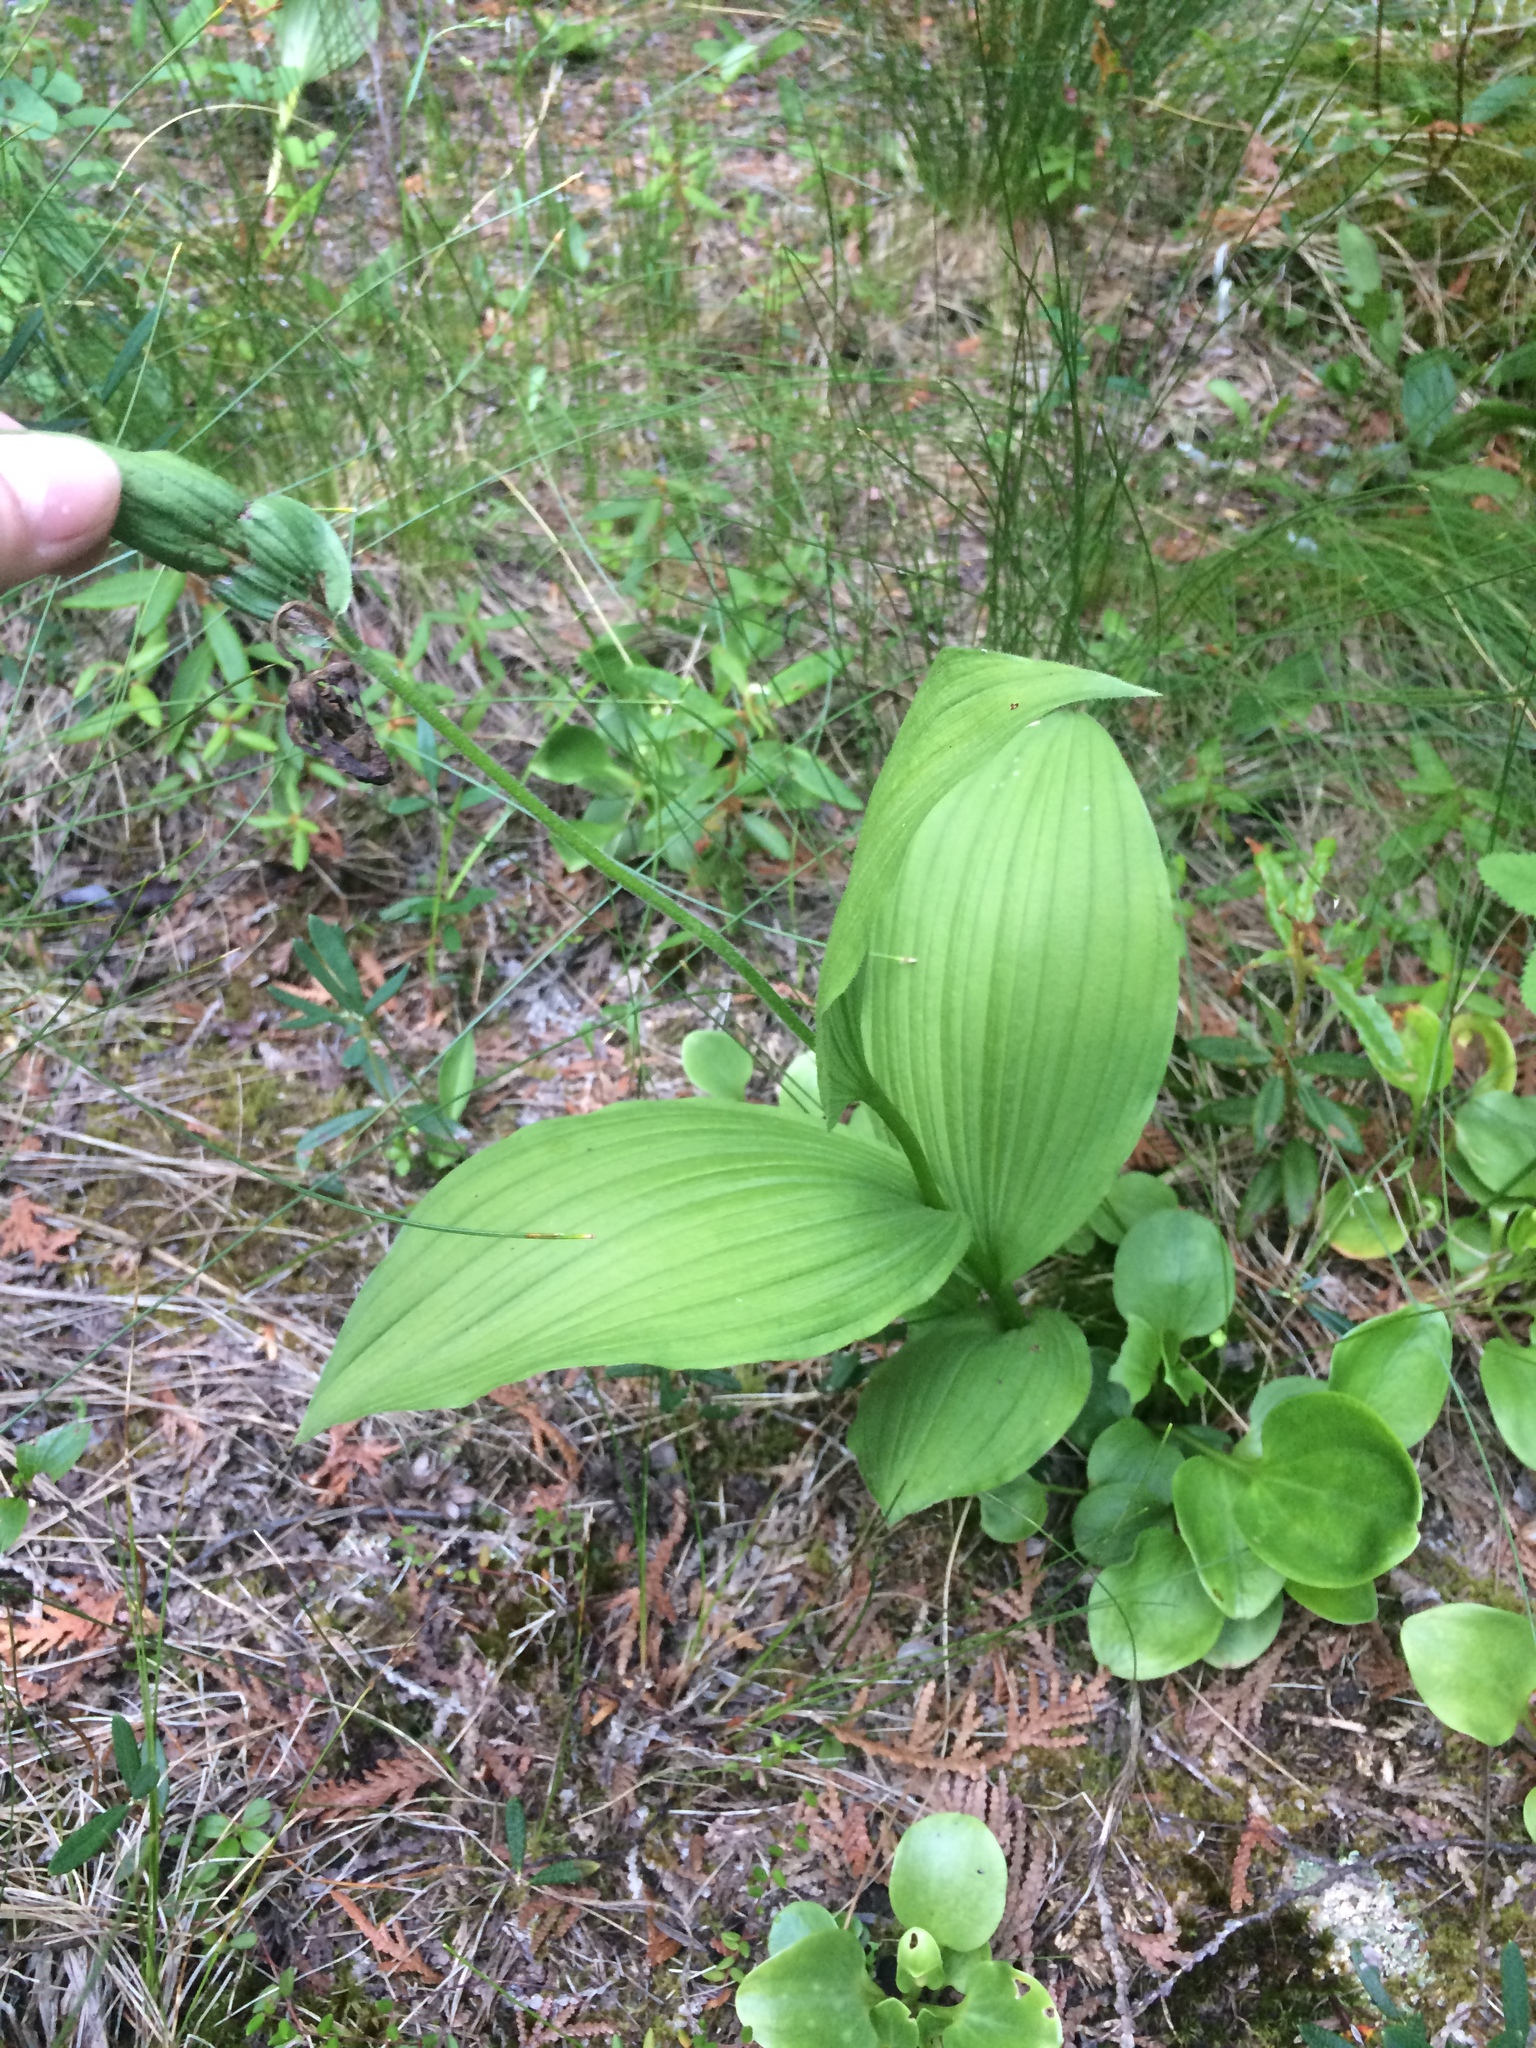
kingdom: Plantae
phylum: Tracheophyta
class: Liliopsida
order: Asparagales
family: Orchidaceae
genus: Cypripedium
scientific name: Cypripedium reginae
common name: Queen lady's-slipper
